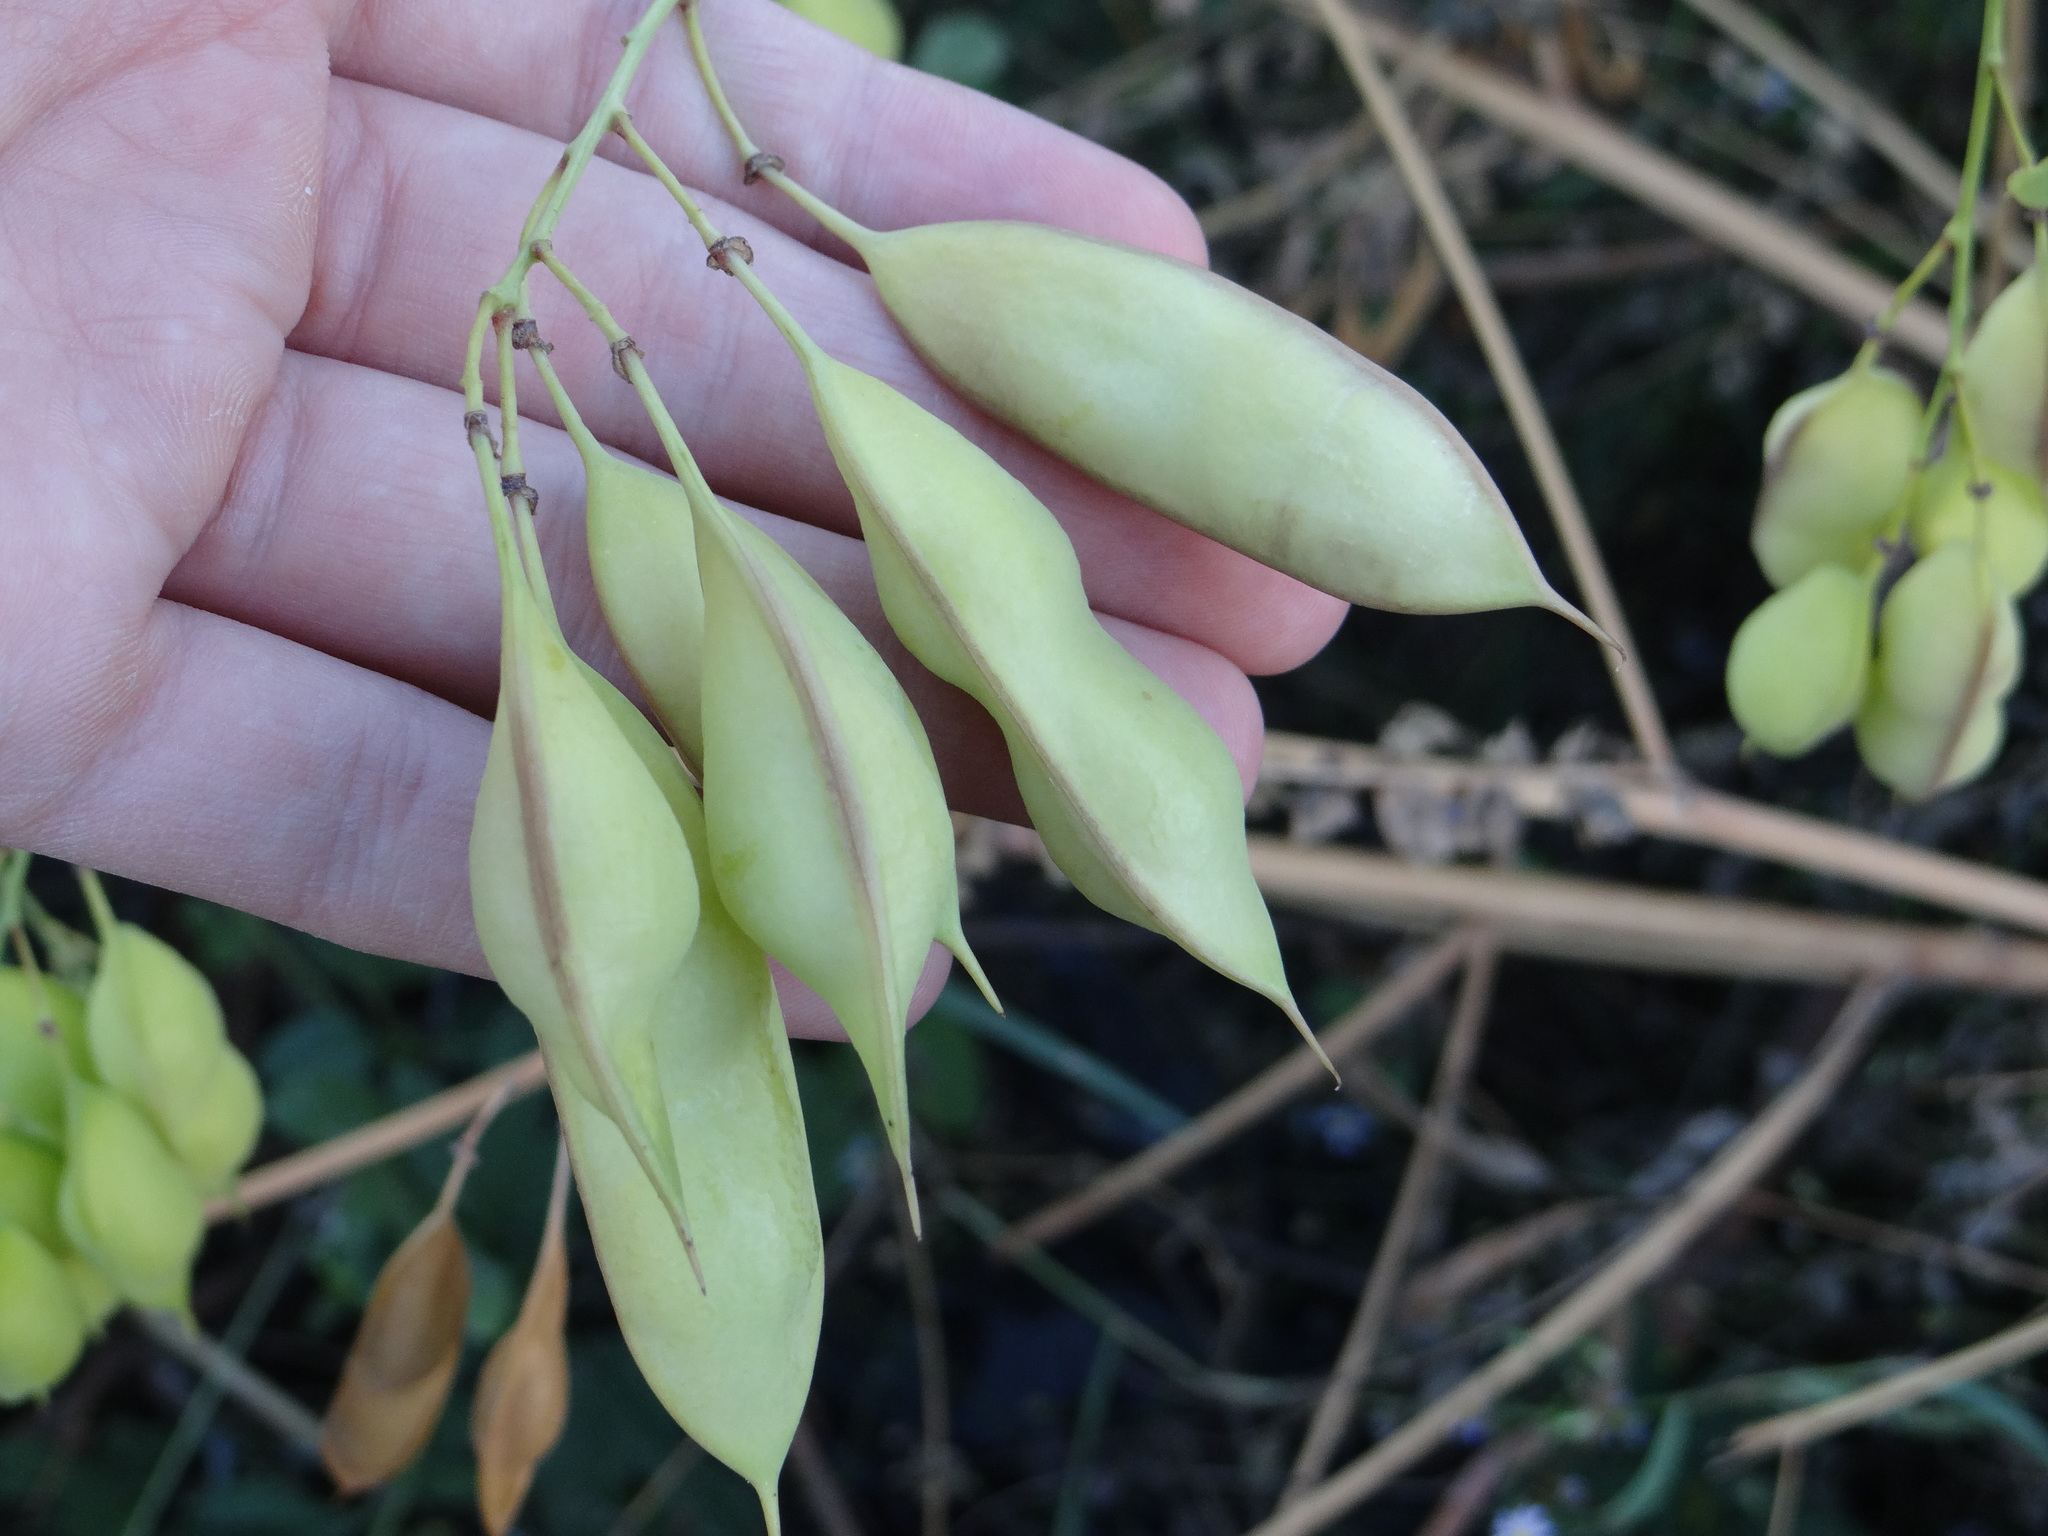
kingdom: Plantae
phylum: Tracheophyta
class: Magnoliopsida
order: Fabales
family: Fabaceae
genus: Sesbania
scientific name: Sesbania vesicaria
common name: Bagpod
